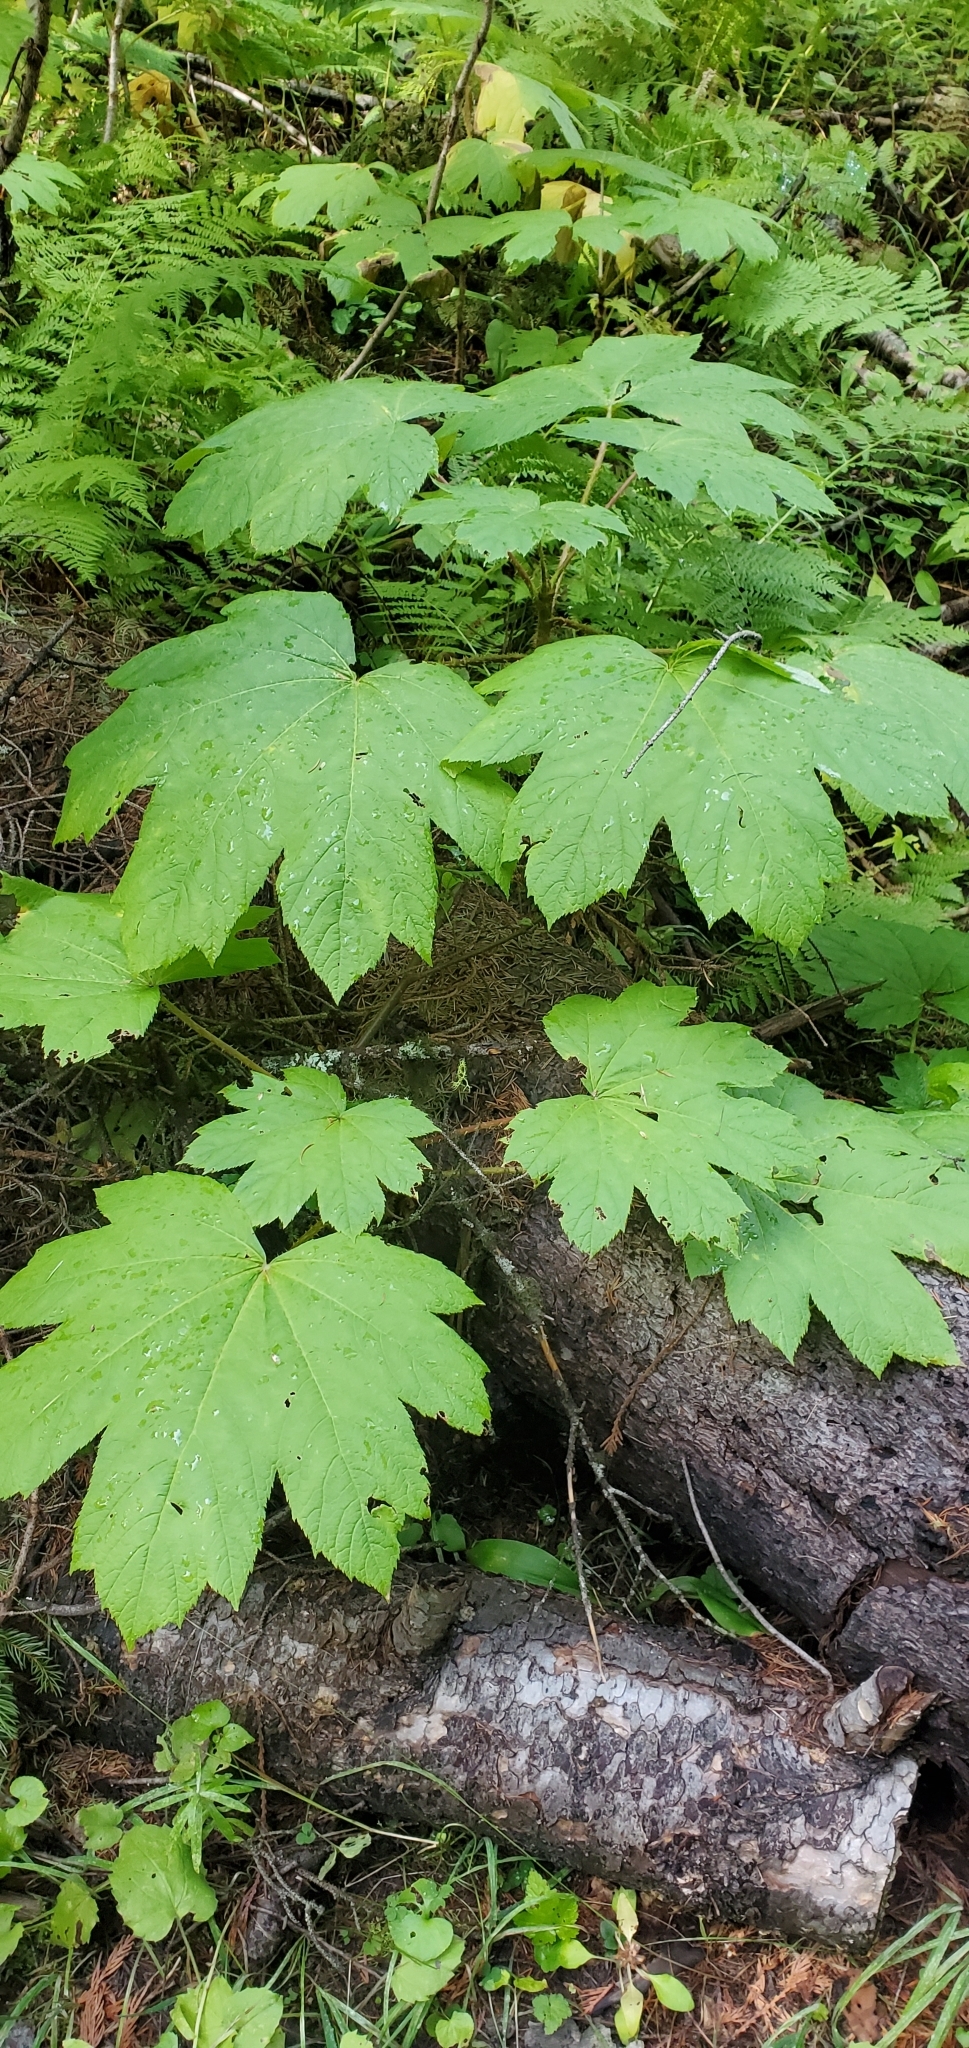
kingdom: Plantae
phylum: Tracheophyta
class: Magnoliopsida
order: Apiales
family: Araliaceae
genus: Oplopanax
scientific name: Oplopanax horridus
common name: Devil's walking-stick
